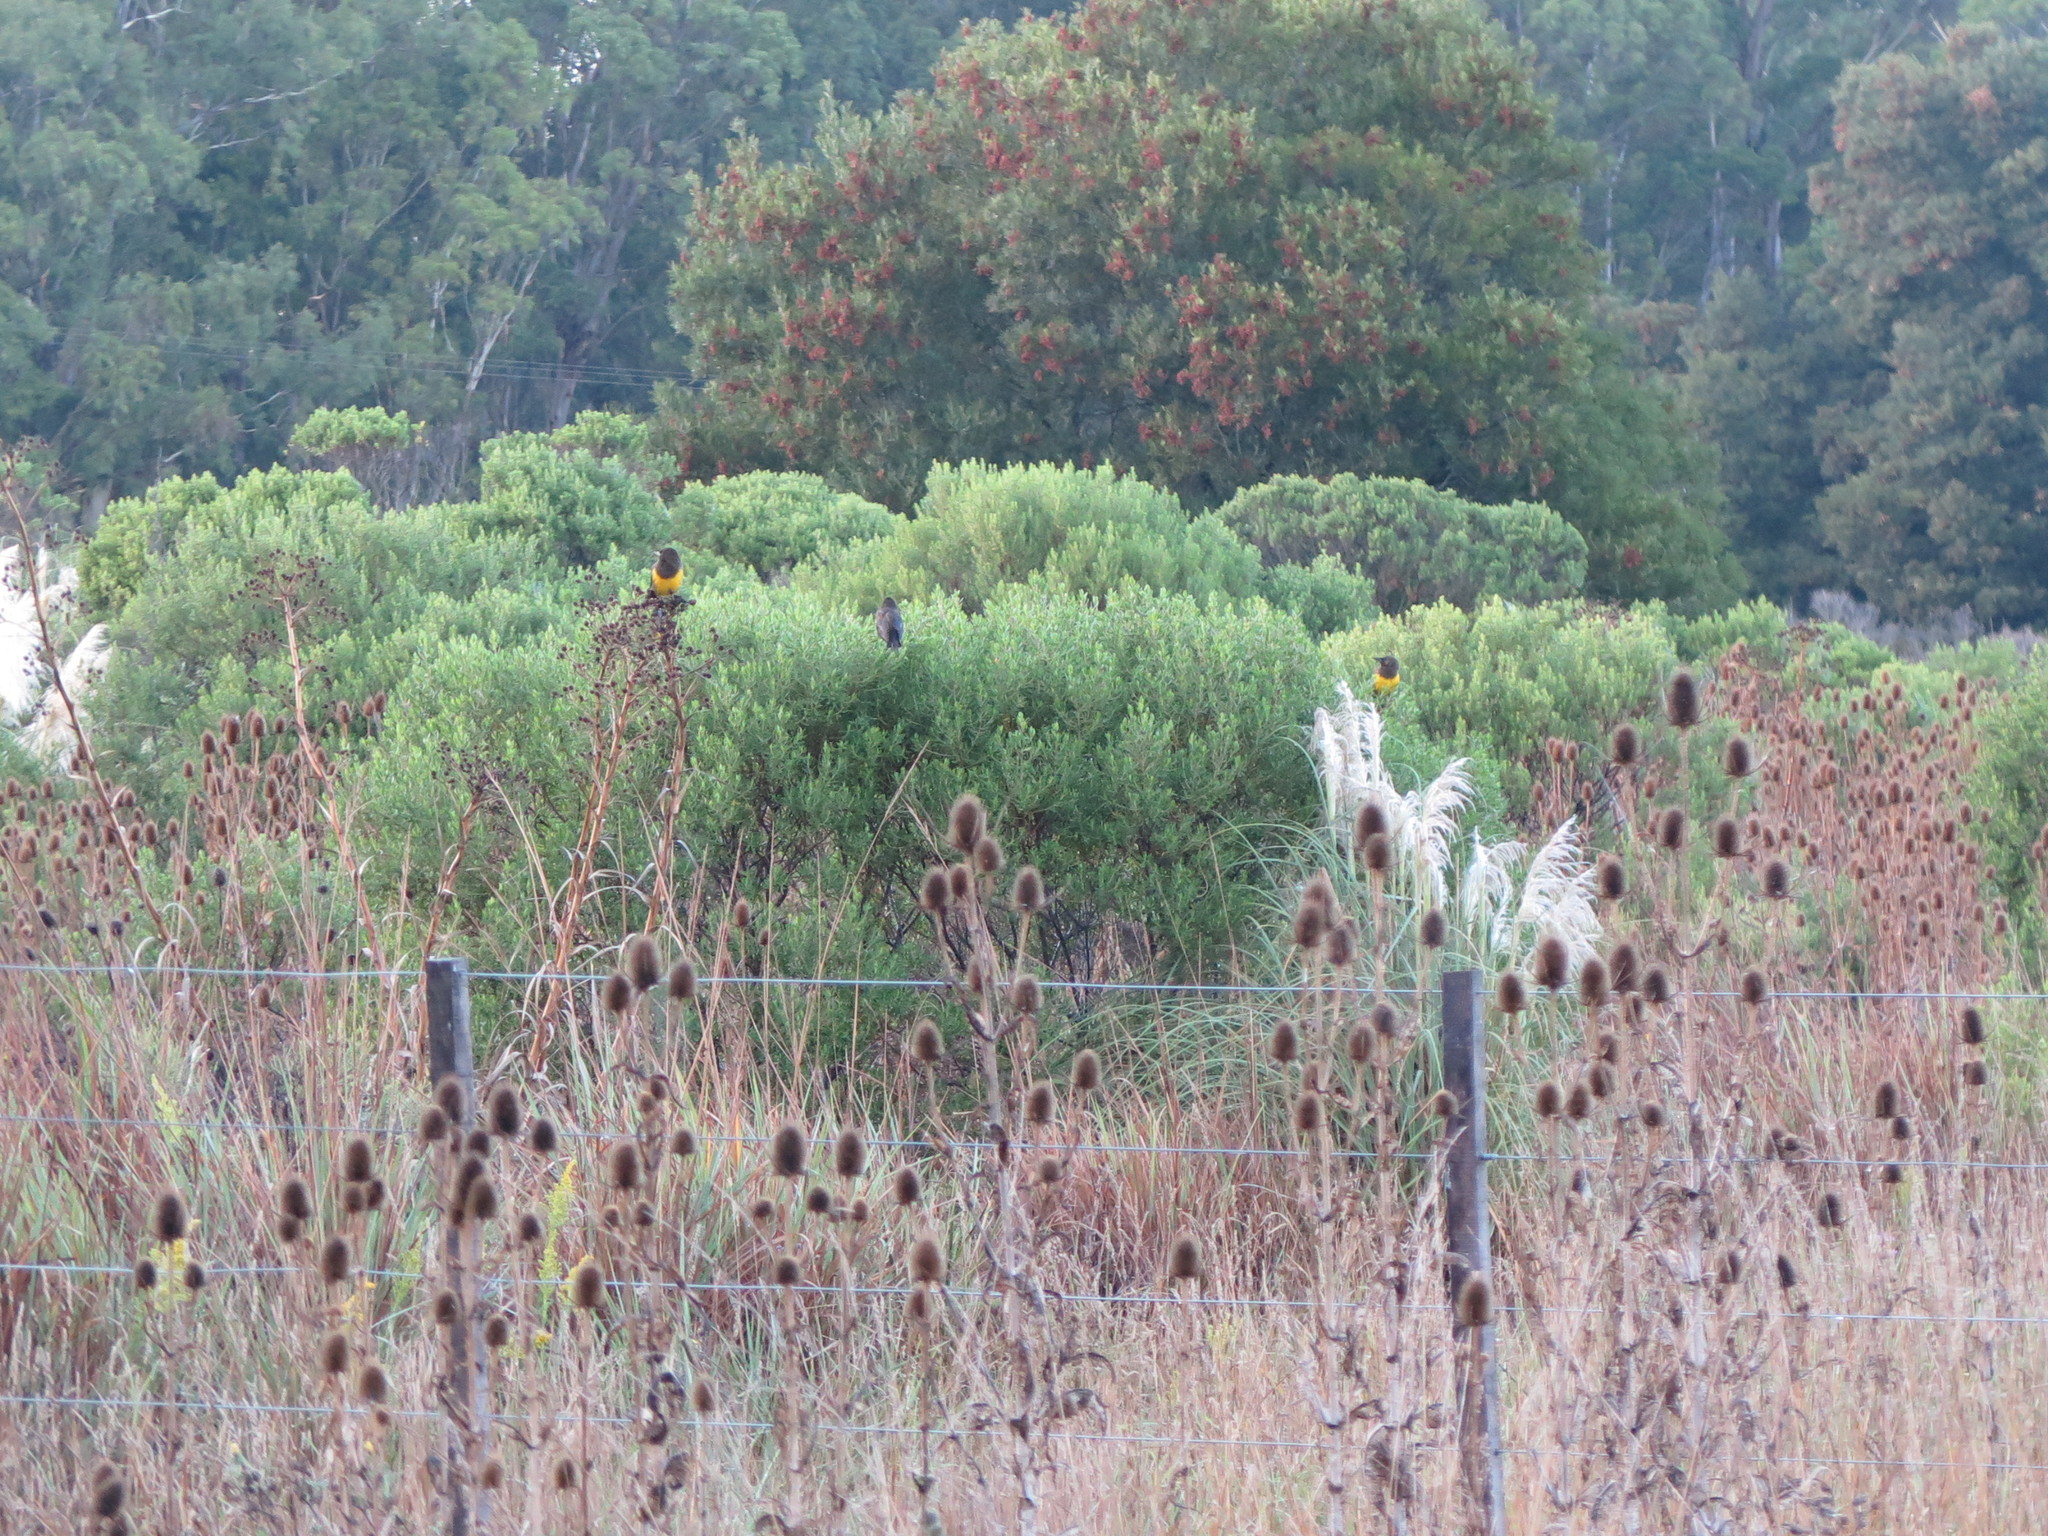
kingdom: Animalia
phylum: Chordata
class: Aves
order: Passeriformes
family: Icteridae
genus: Pseudoleistes
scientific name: Pseudoleistes virescens
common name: Brown-and-yellow marshbird
